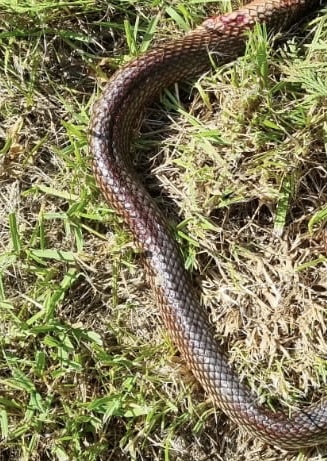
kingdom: Animalia
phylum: Chordata
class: Squamata
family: Colubridae
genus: Dolichophis
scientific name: Dolichophis caspius
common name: Large whip snake
